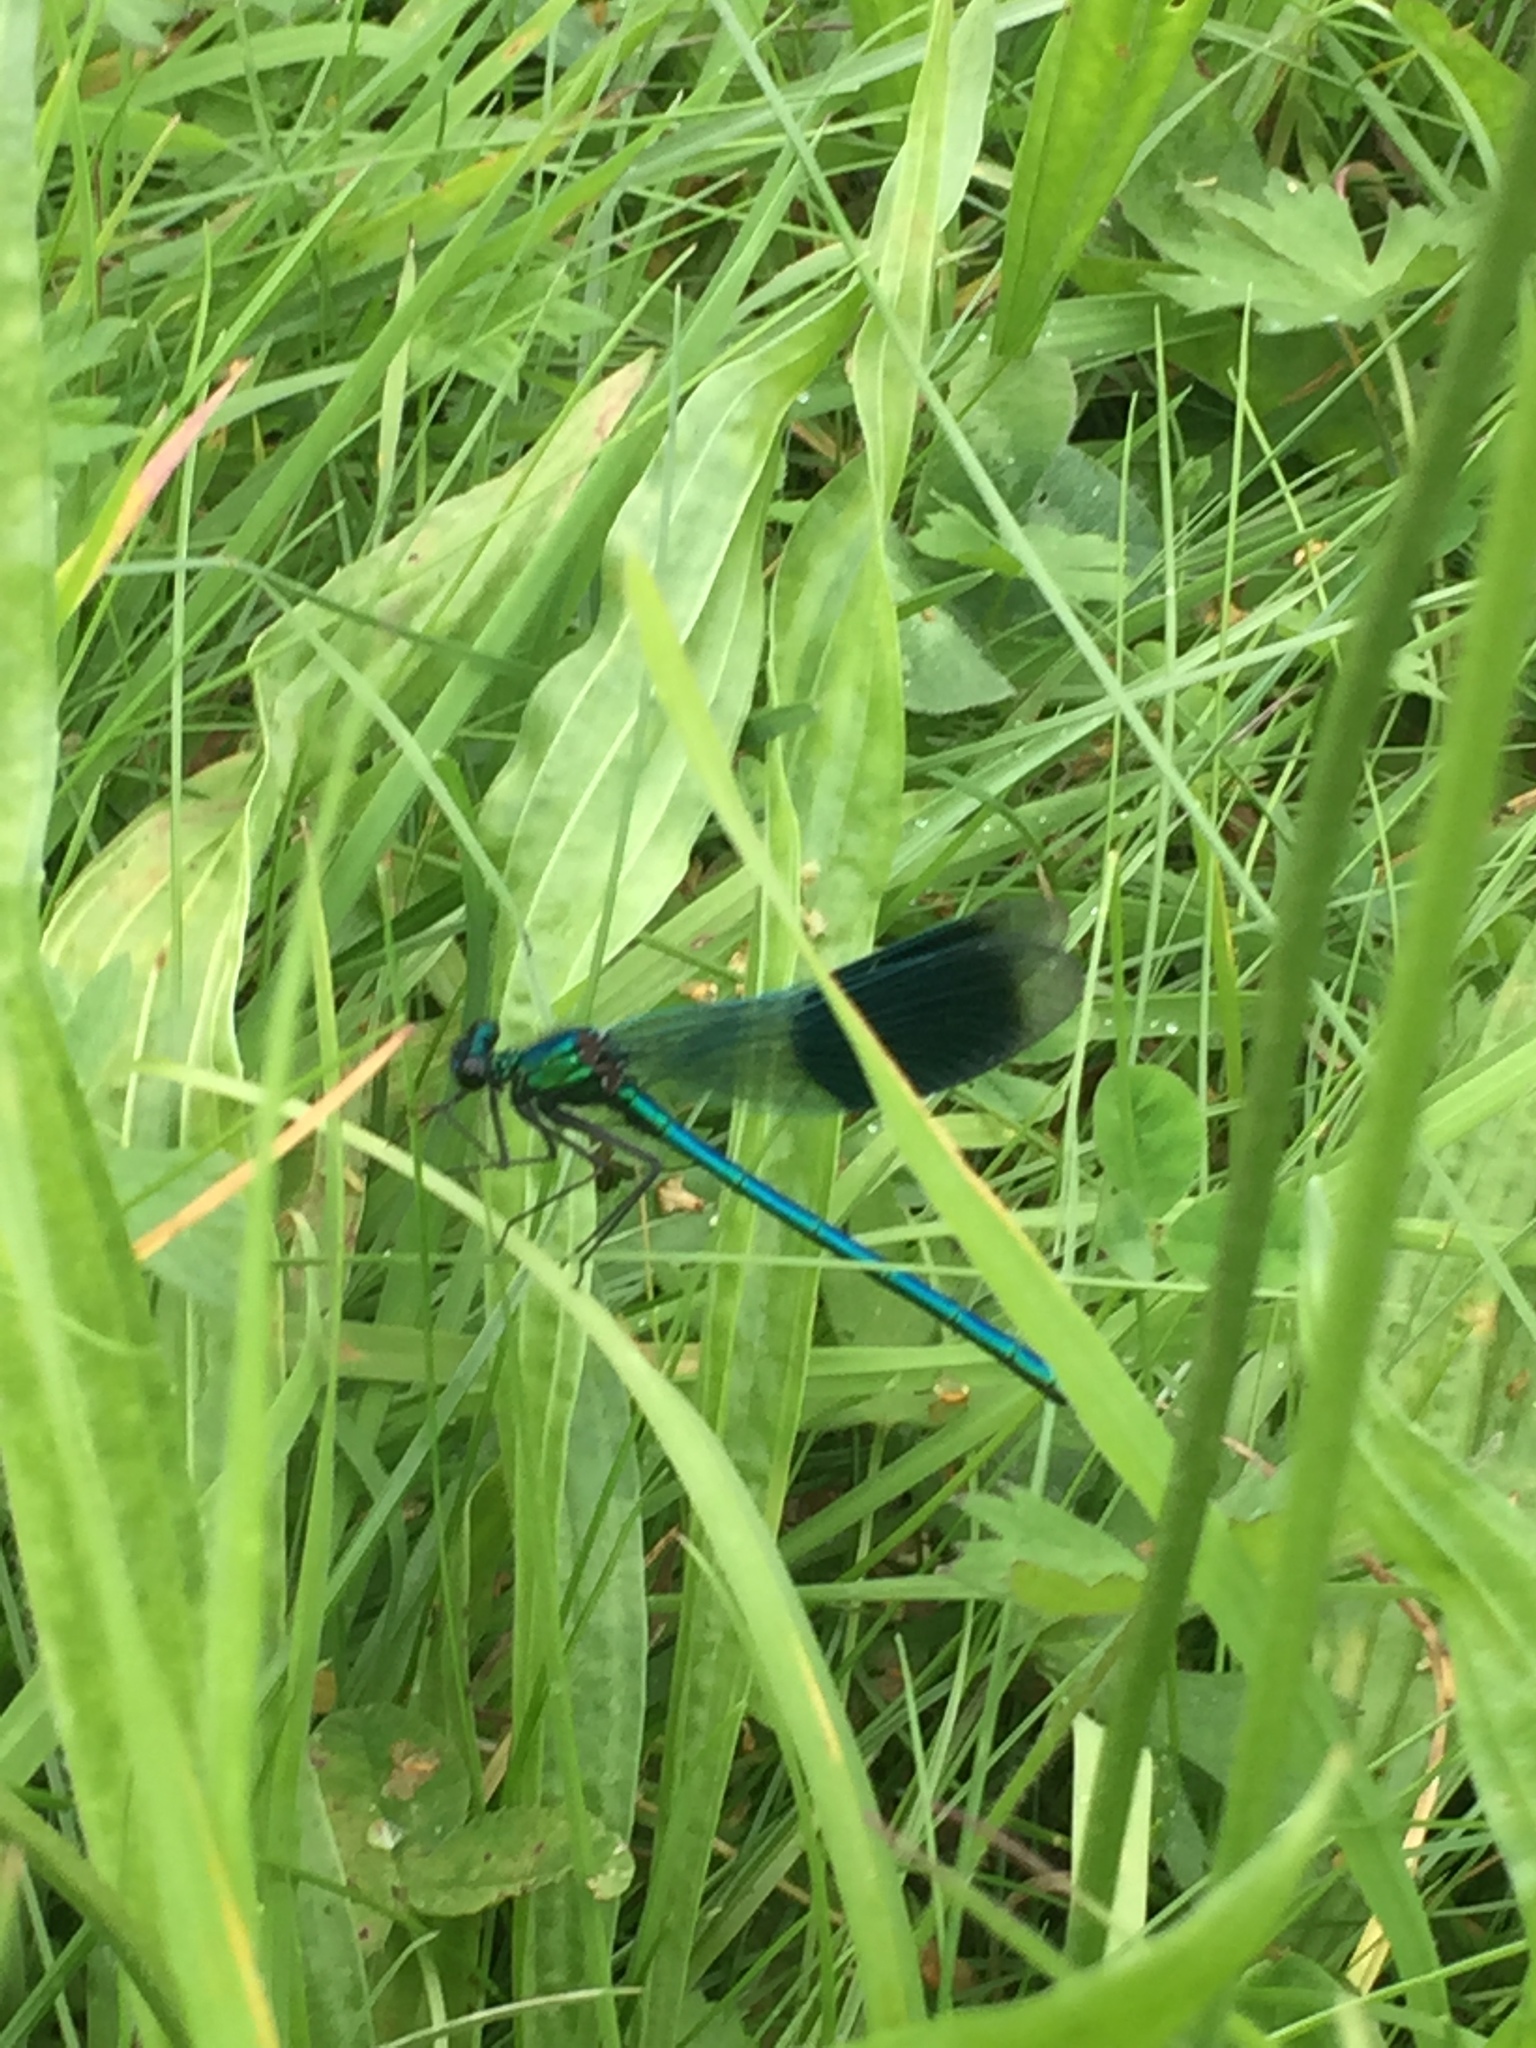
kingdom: Animalia
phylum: Arthropoda
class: Insecta
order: Odonata
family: Calopterygidae
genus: Calopteryx
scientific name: Calopteryx splendens
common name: Banded demoiselle
